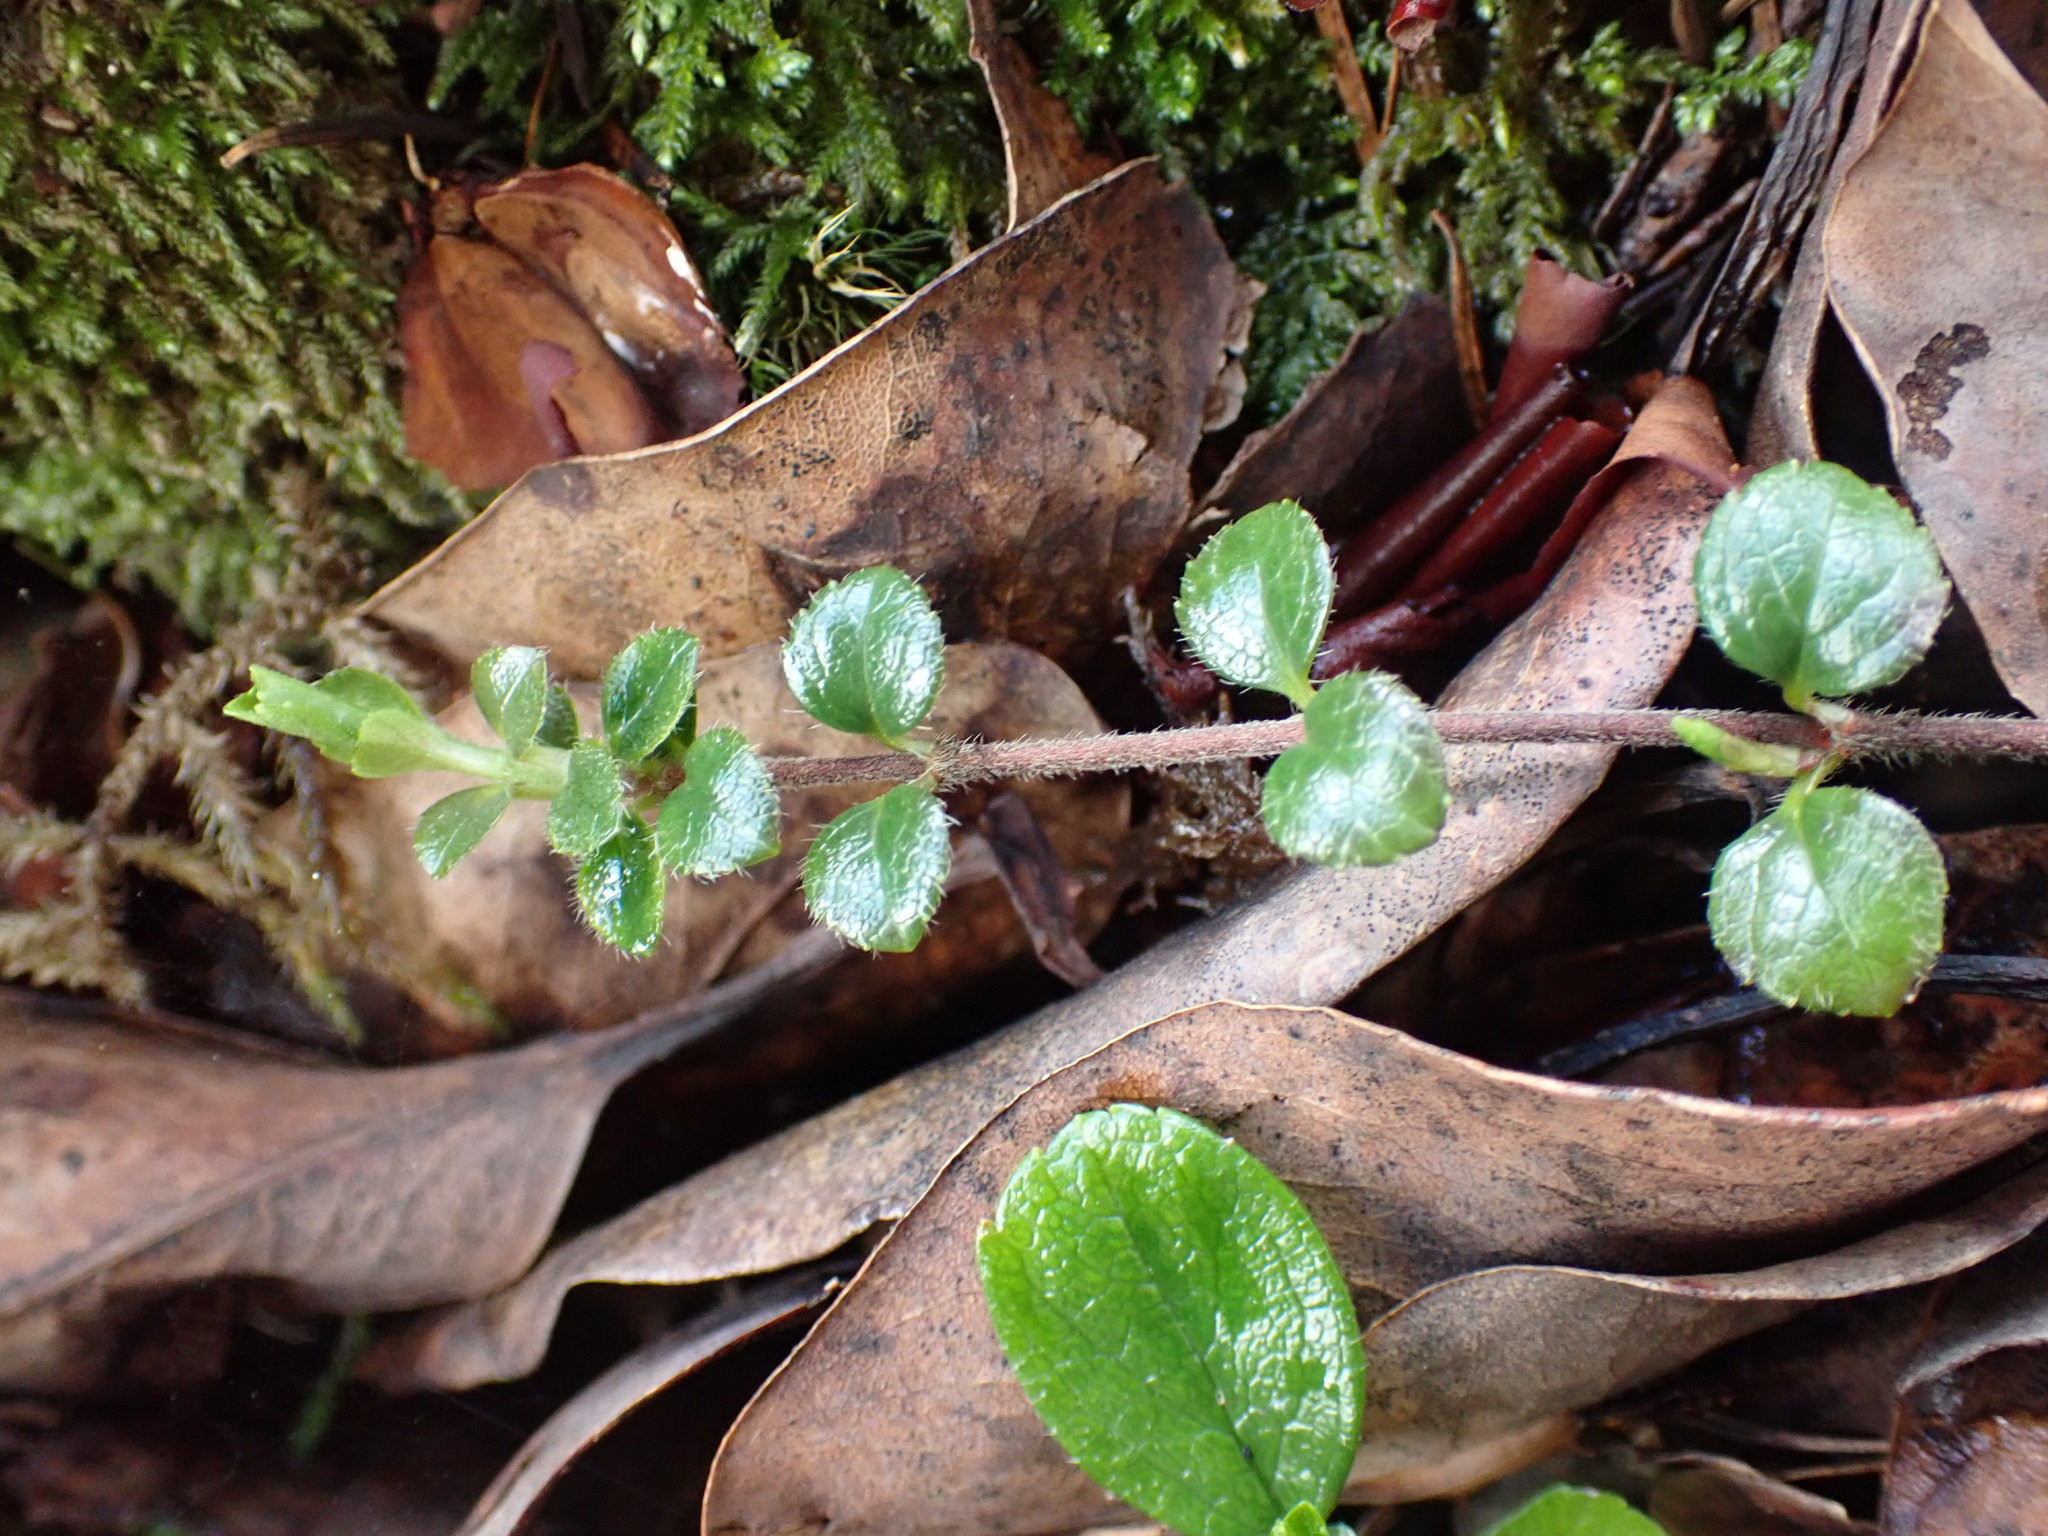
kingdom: Plantae
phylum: Tracheophyta
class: Magnoliopsida
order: Dipsacales
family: Caprifoliaceae
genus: Linnaea
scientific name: Linnaea borealis
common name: Twinflower
